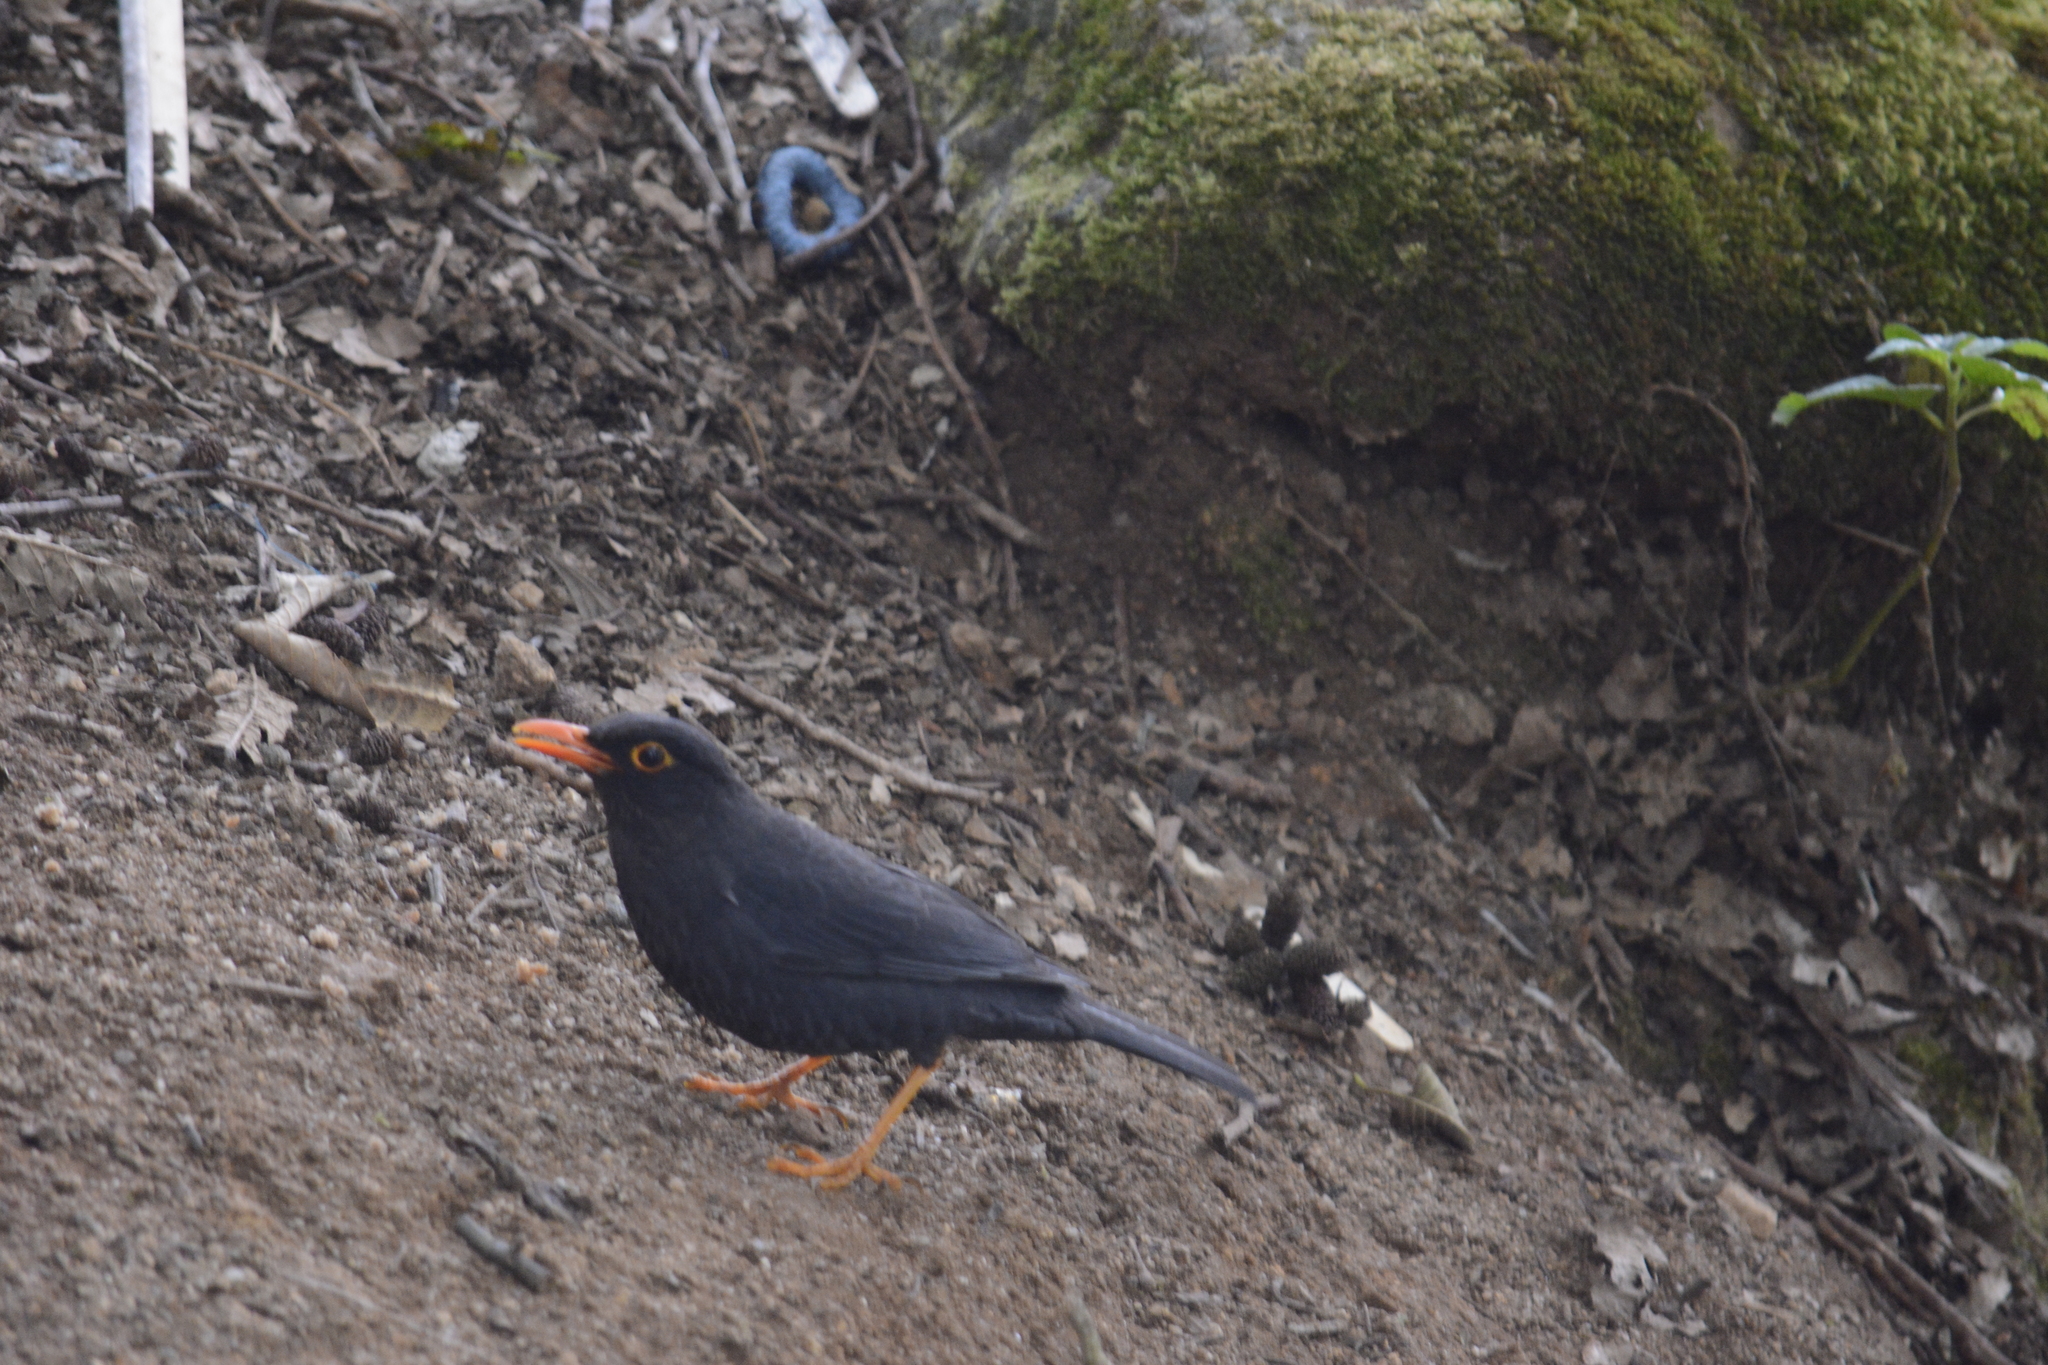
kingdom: Animalia
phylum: Chordata
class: Aves
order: Passeriformes
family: Turdidae
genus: Turdus
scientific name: Turdus simillimus
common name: Indian blackbird
